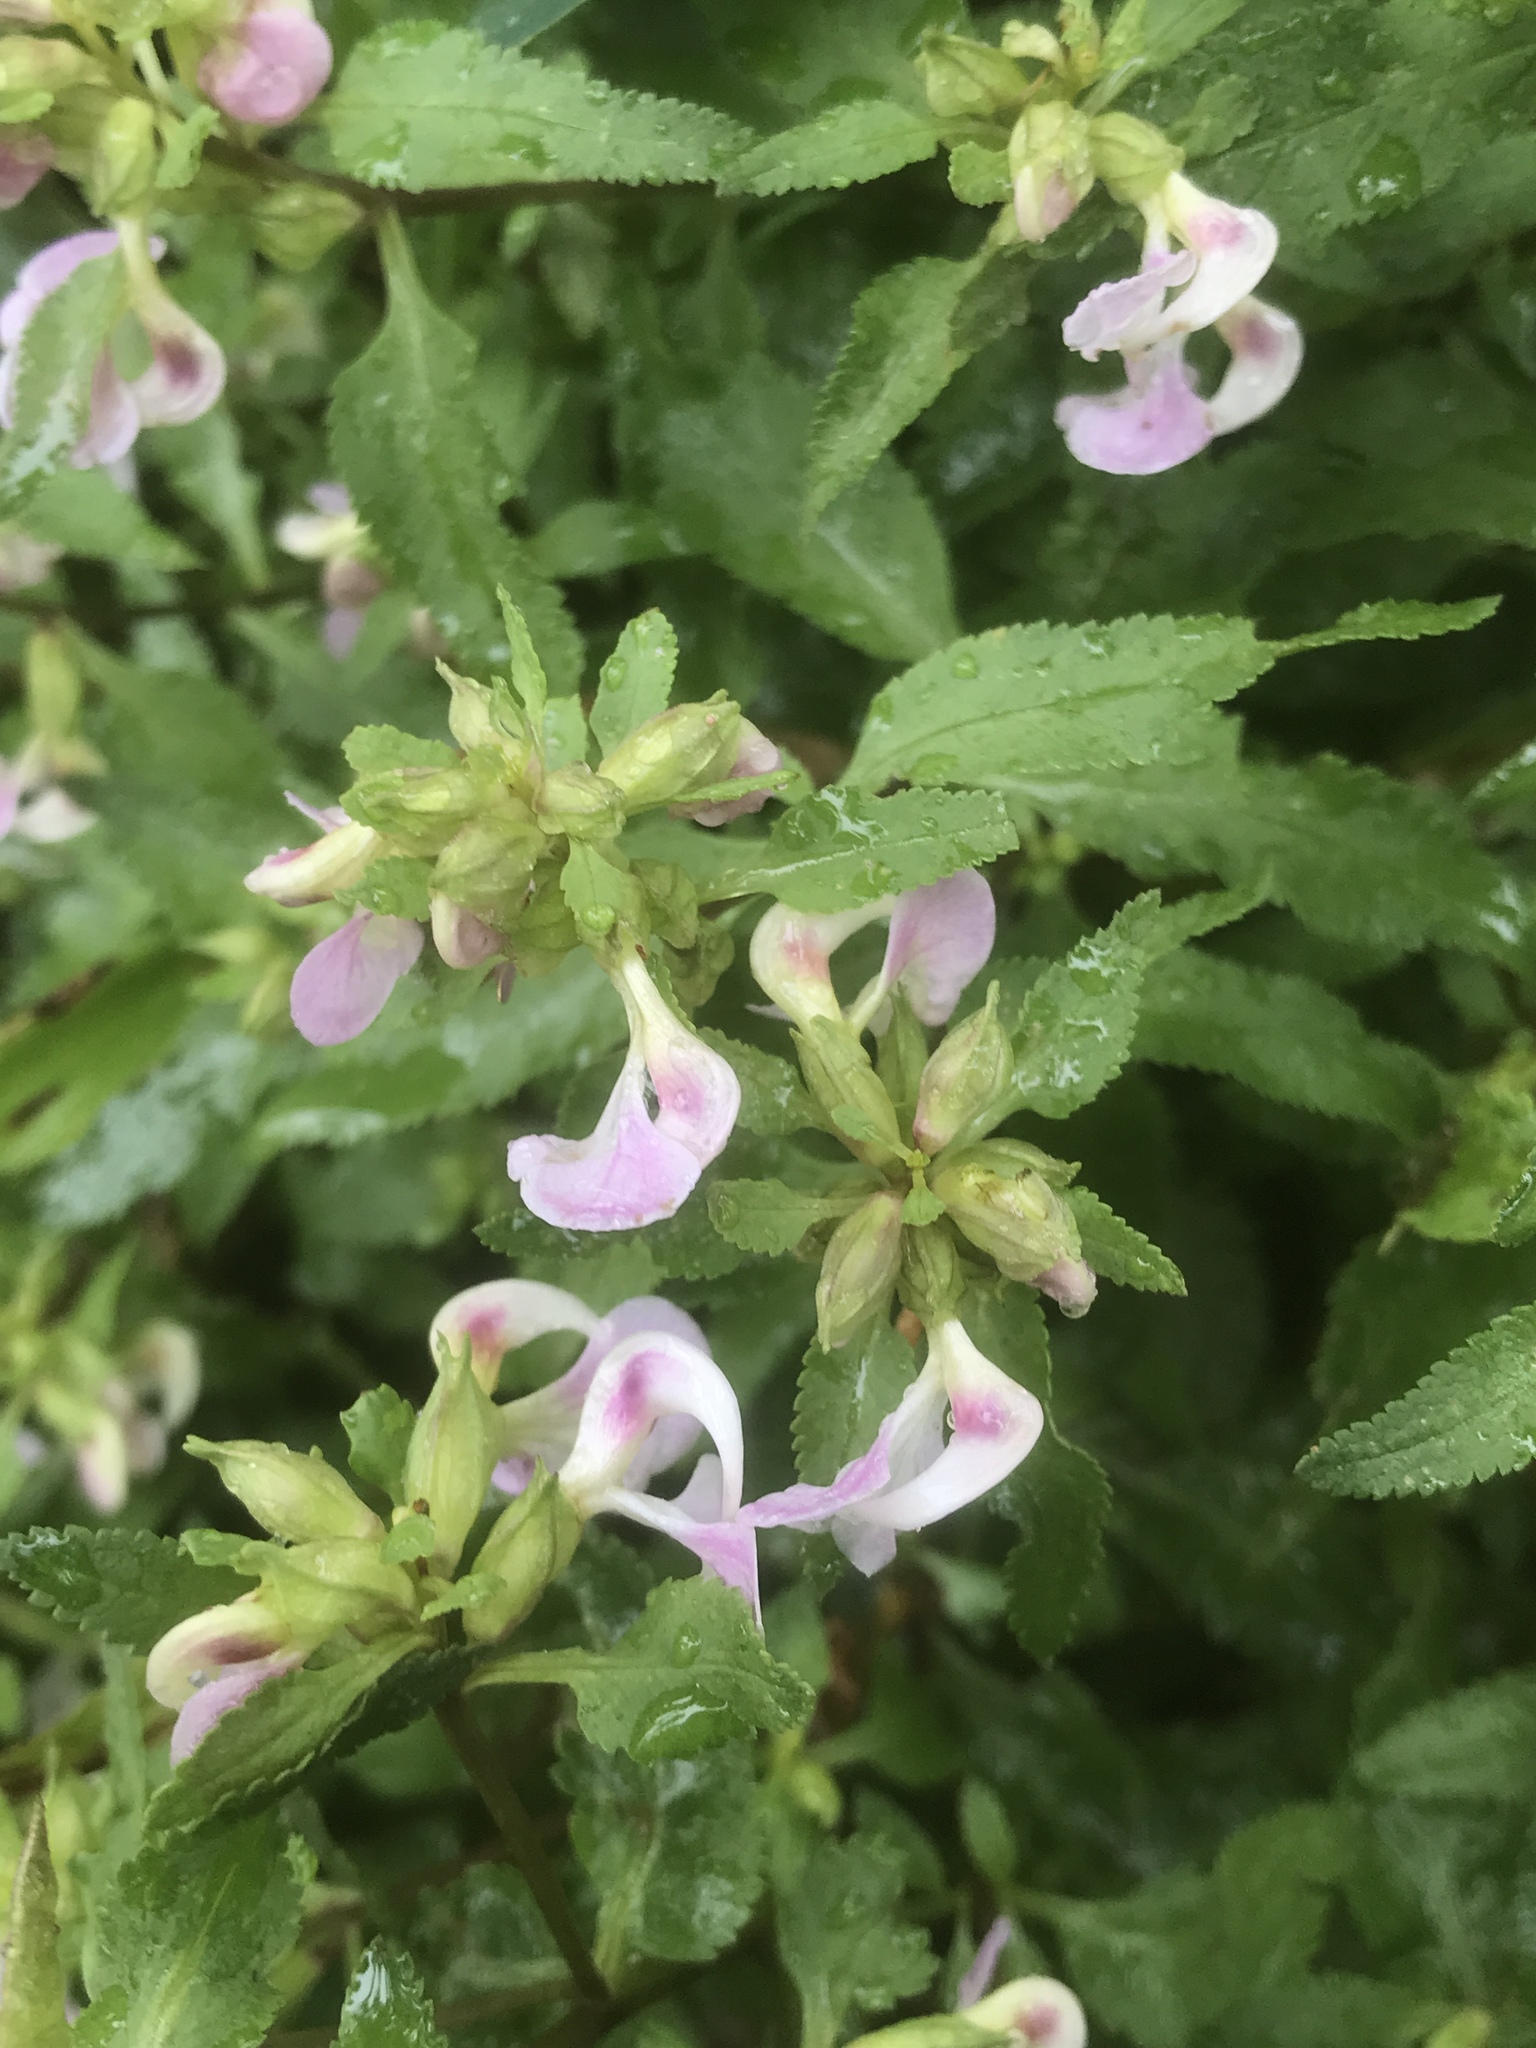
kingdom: Plantae
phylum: Tracheophyta
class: Magnoliopsida
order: Lamiales
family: Orobanchaceae
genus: Pedicularis
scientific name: Pedicularis racemosa
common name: Leafy lousewort
